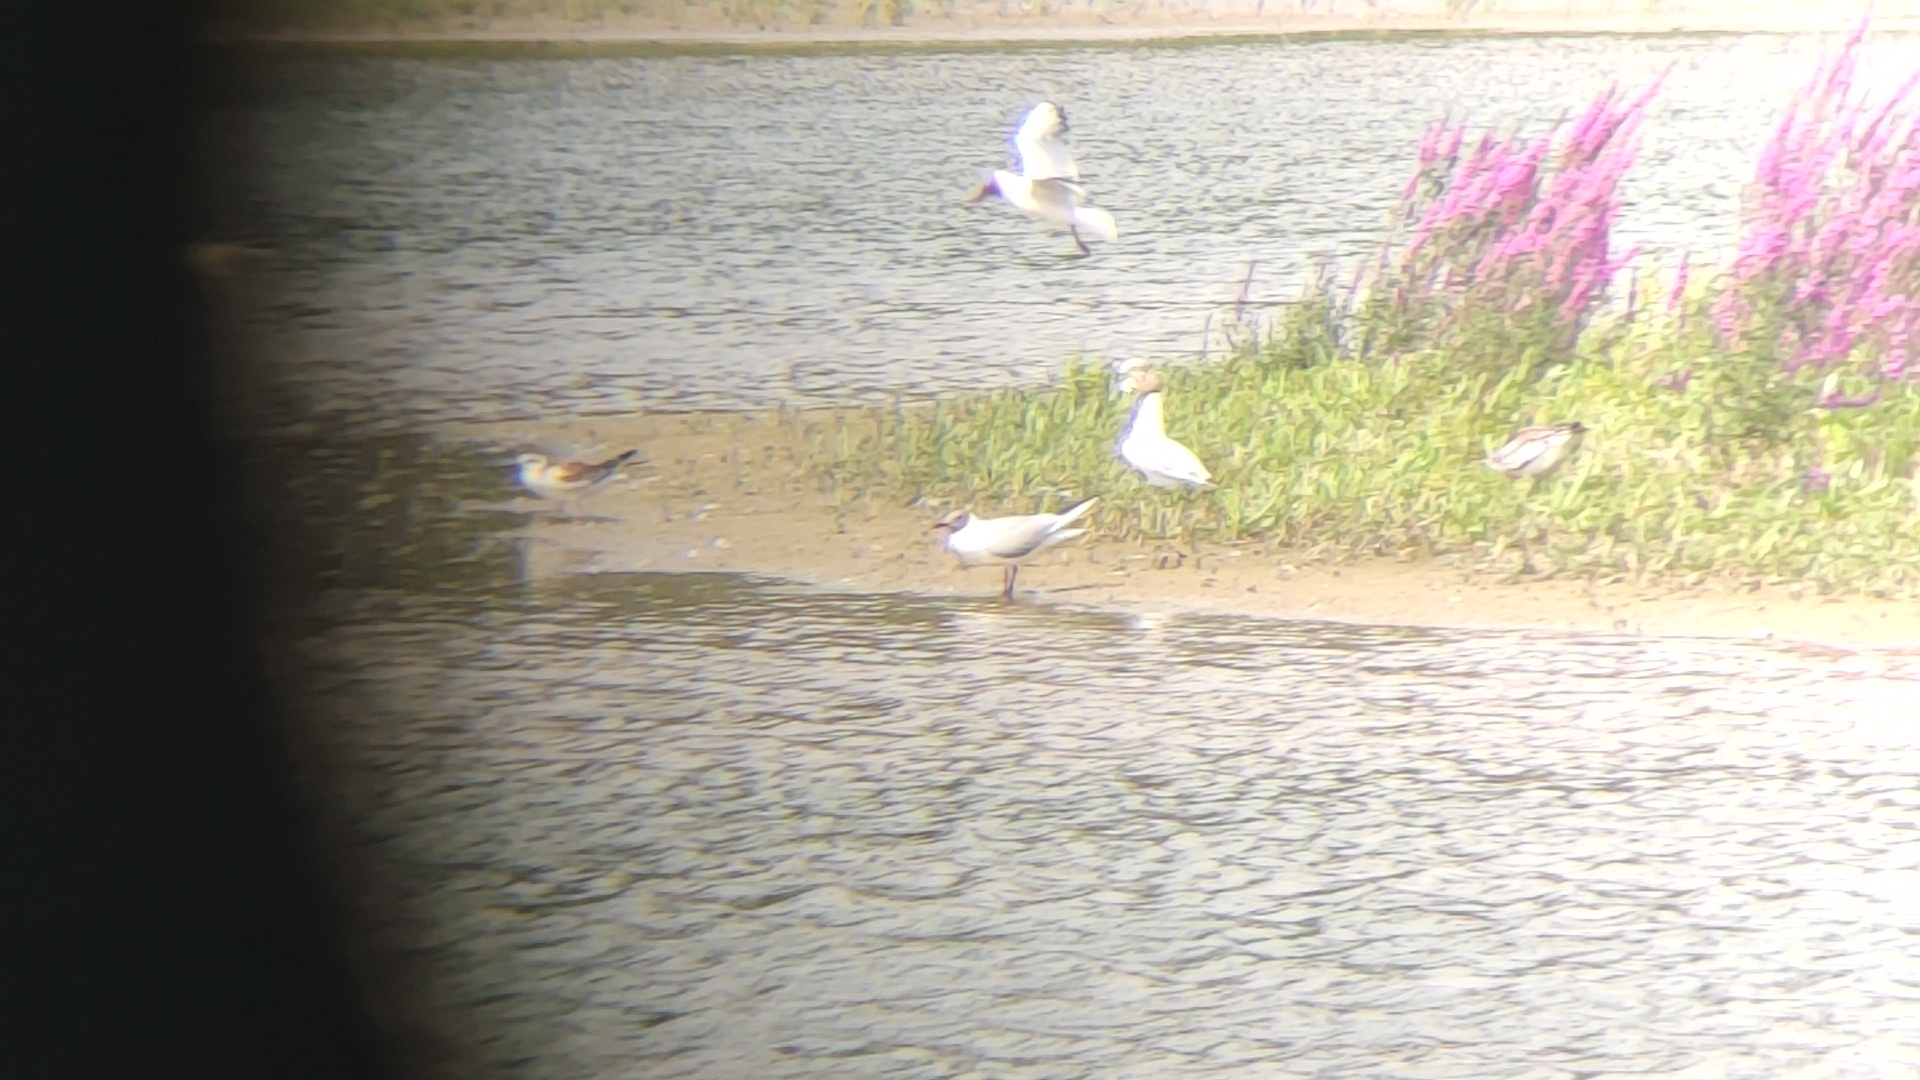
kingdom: Animalia
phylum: Chordata
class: Aves
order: Charadriiformes
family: Laridae
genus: Chroicocephalus
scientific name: Chroicocephalus ridibundus
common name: Black-headed gull
